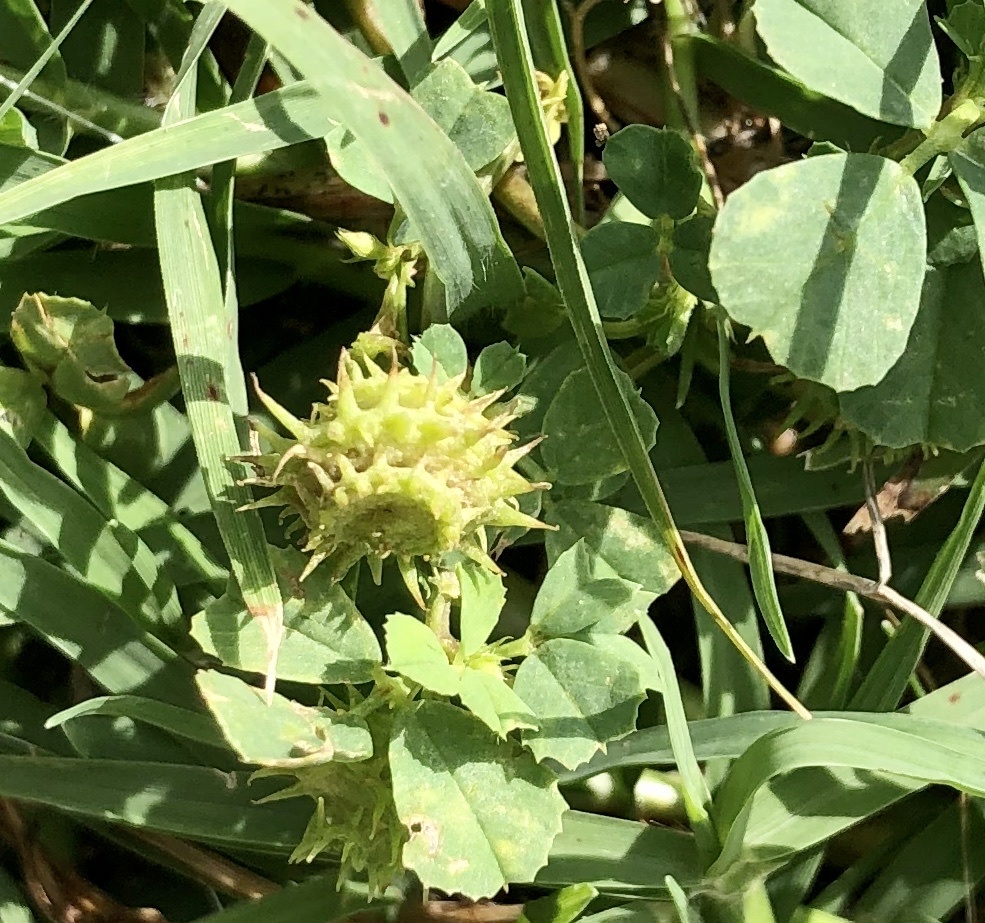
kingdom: Plantae
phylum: Tracheophyta
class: Magnoliopsida
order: Fabales
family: Fabaceae
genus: Medicago
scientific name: Medicago polymorpha
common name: Burclover
